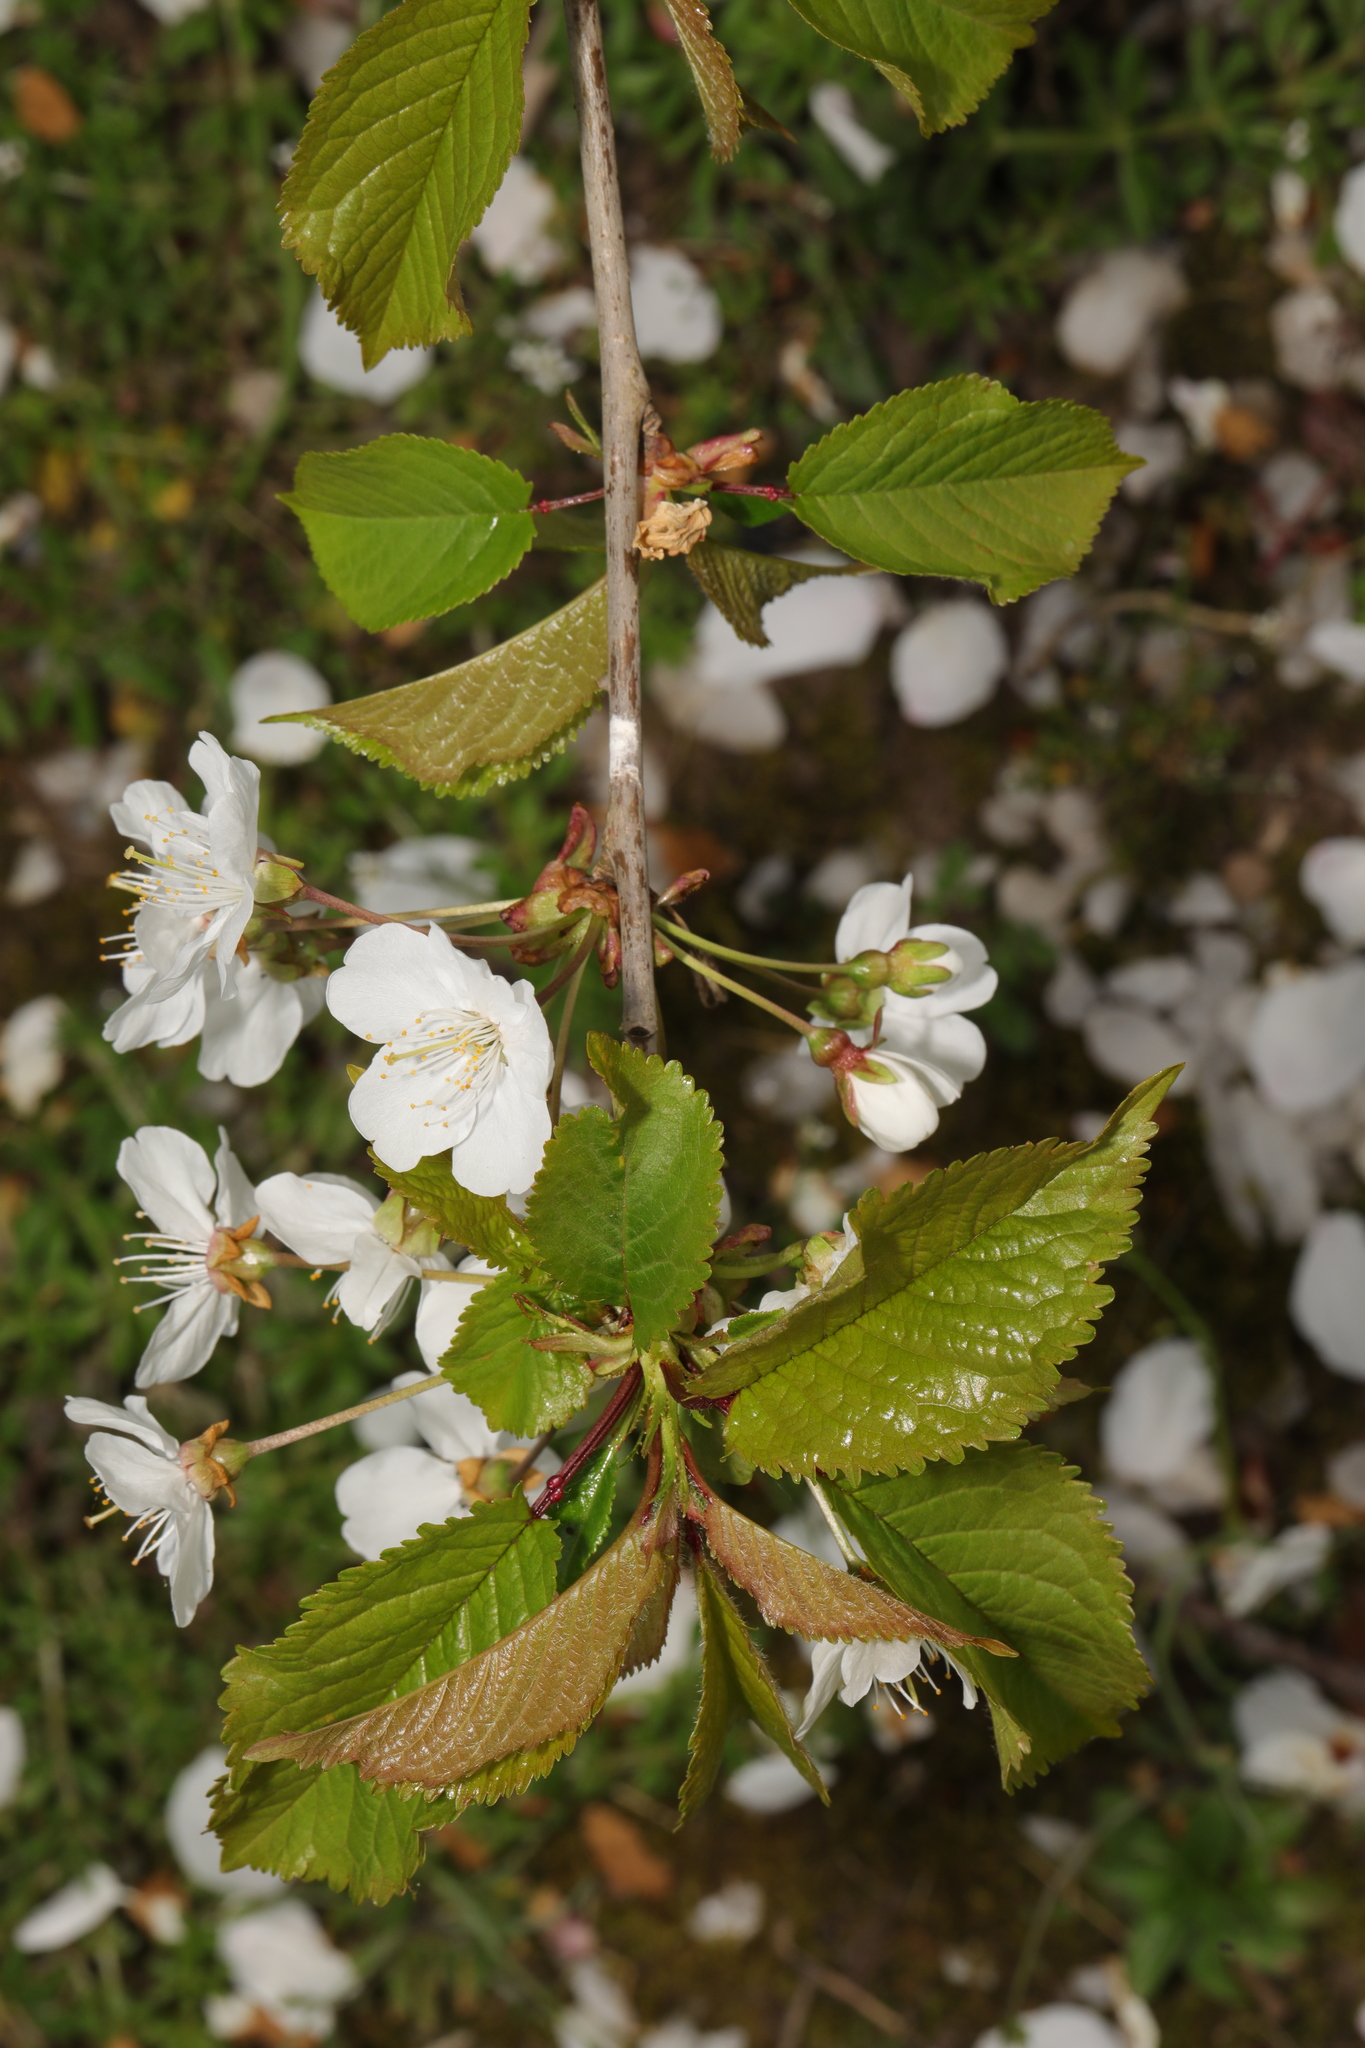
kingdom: Plantae
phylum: Tracheophyta
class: Magnoliopsida
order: Rosales
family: Rosaceae
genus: Prunus
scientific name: Prunus avium
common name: Sweet cherry
